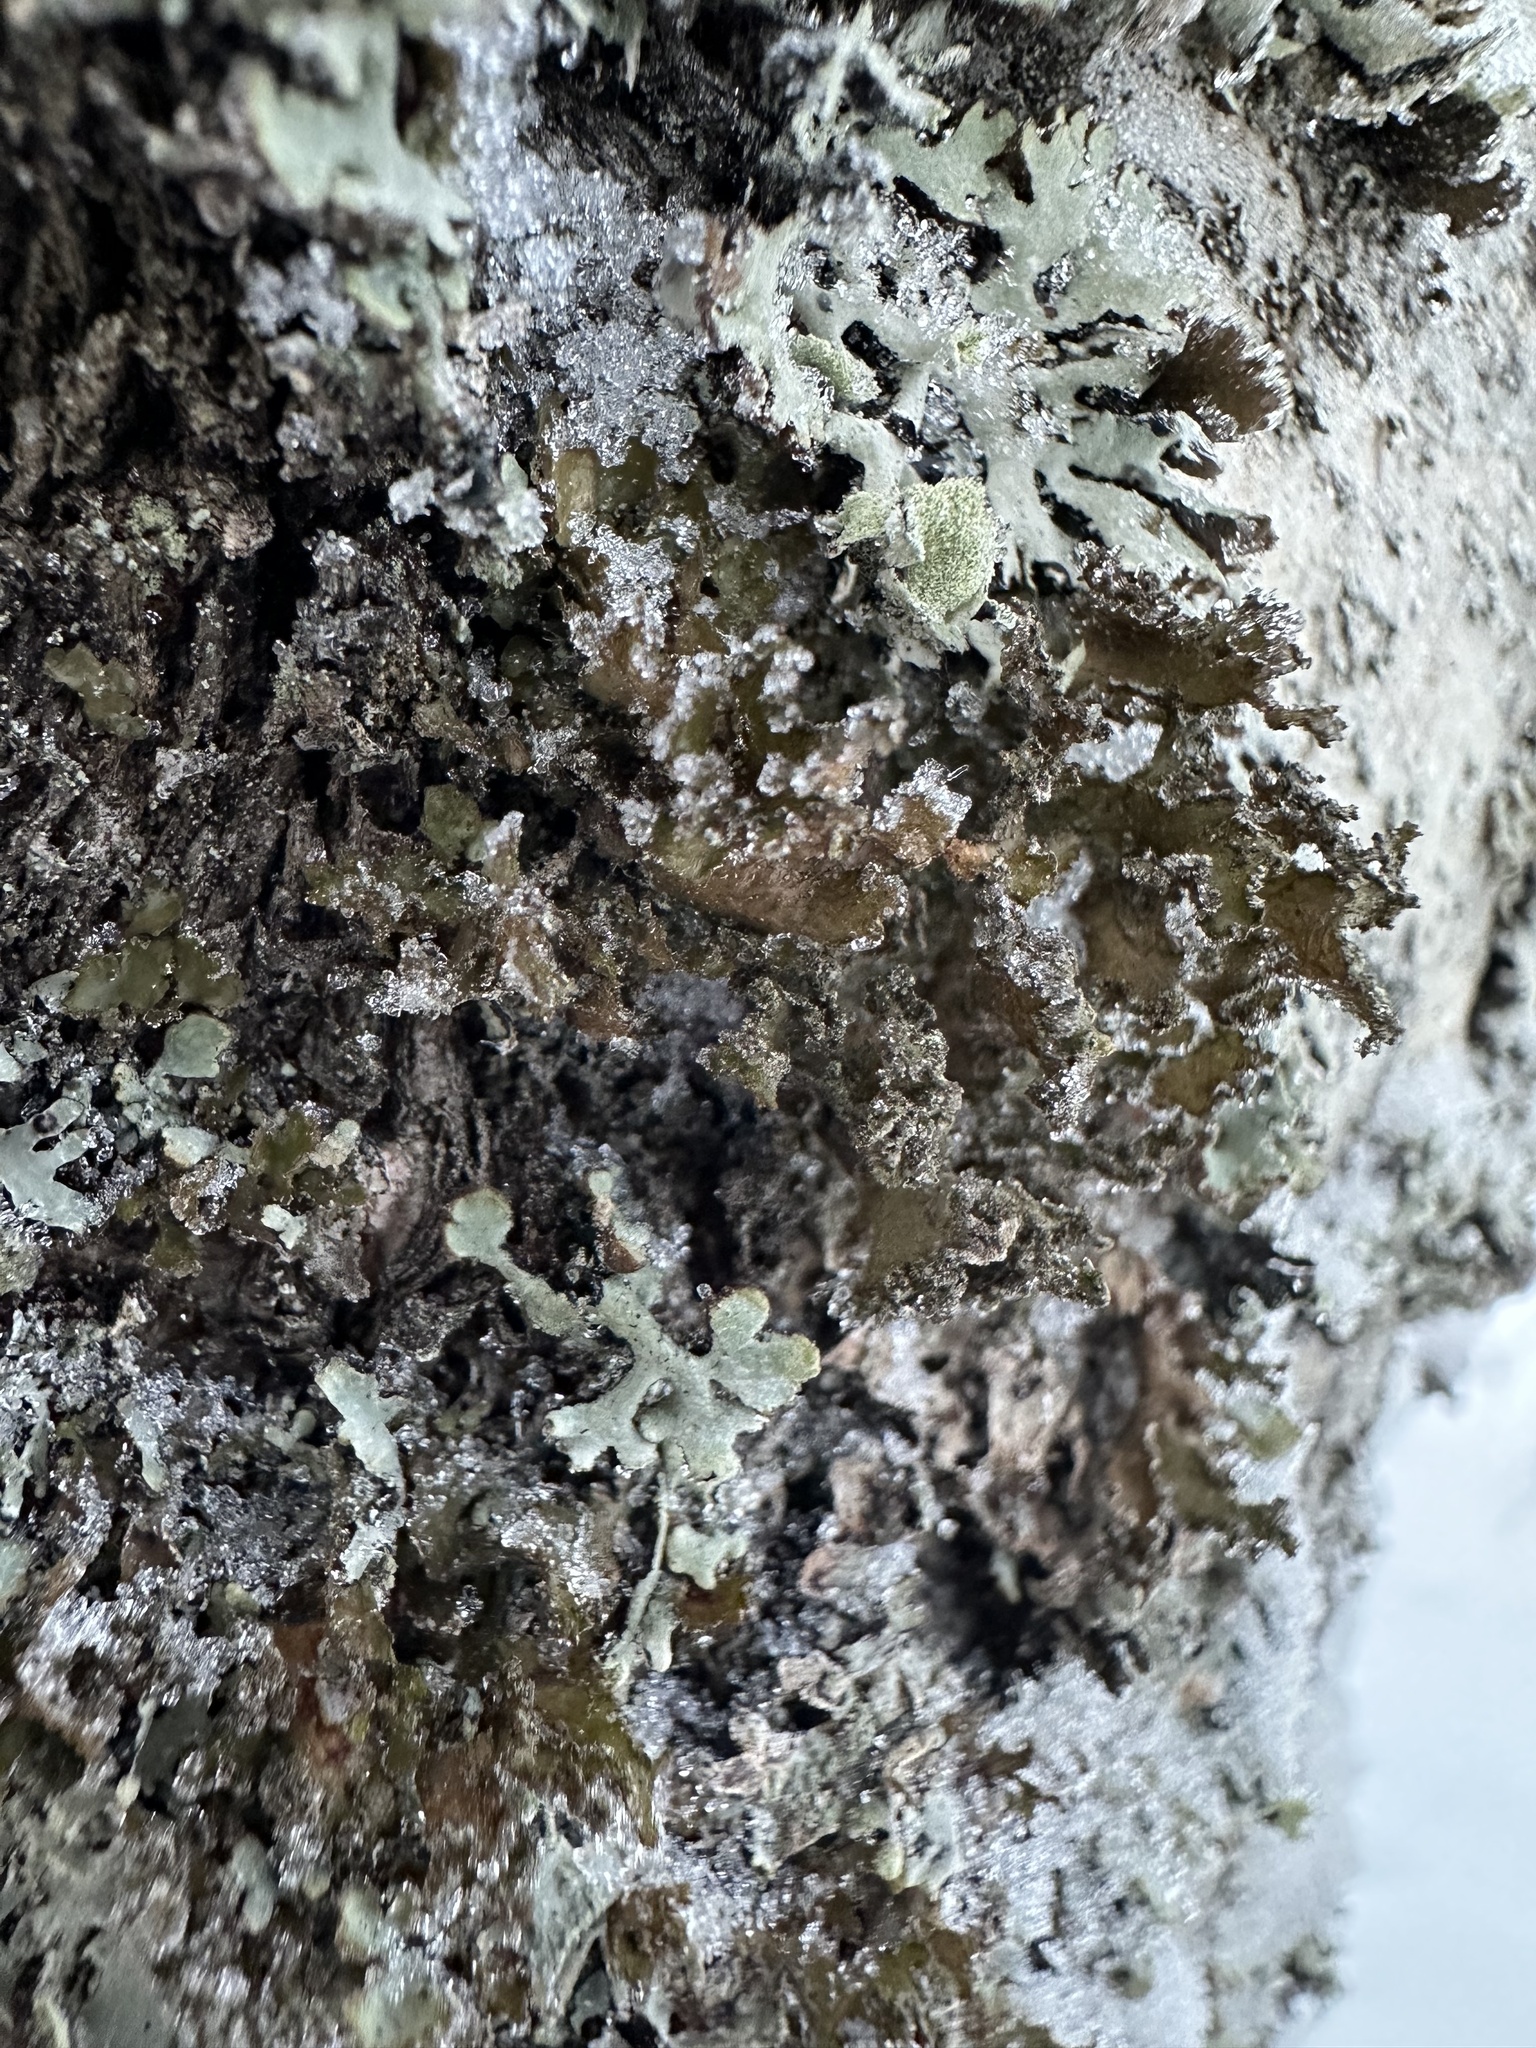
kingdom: Fungi
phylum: Ascomycota
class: Lecanoromycetes
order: Lecanorales
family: Parmeliaceae
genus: Nephromopsis
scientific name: Nephromopsis chlorophylla
